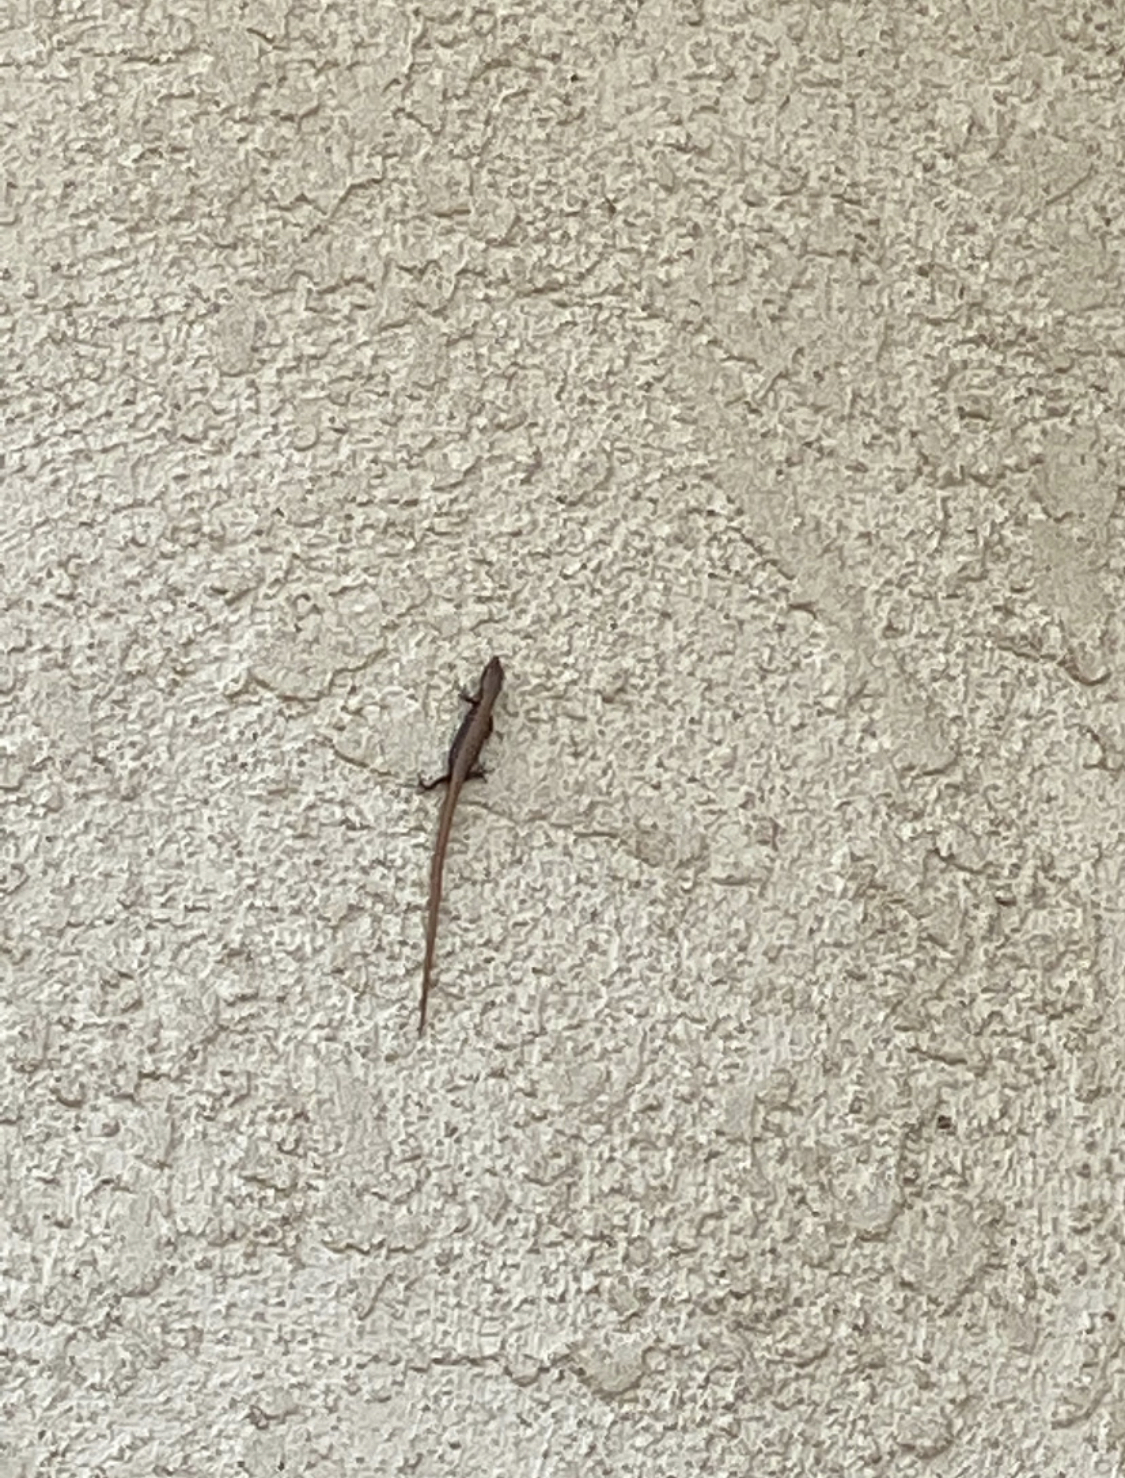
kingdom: Animalia
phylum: Chordata
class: Squamata
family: Anguidae
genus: Elgaria
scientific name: Elgaria multicarinata
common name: Southern alligator lizard
